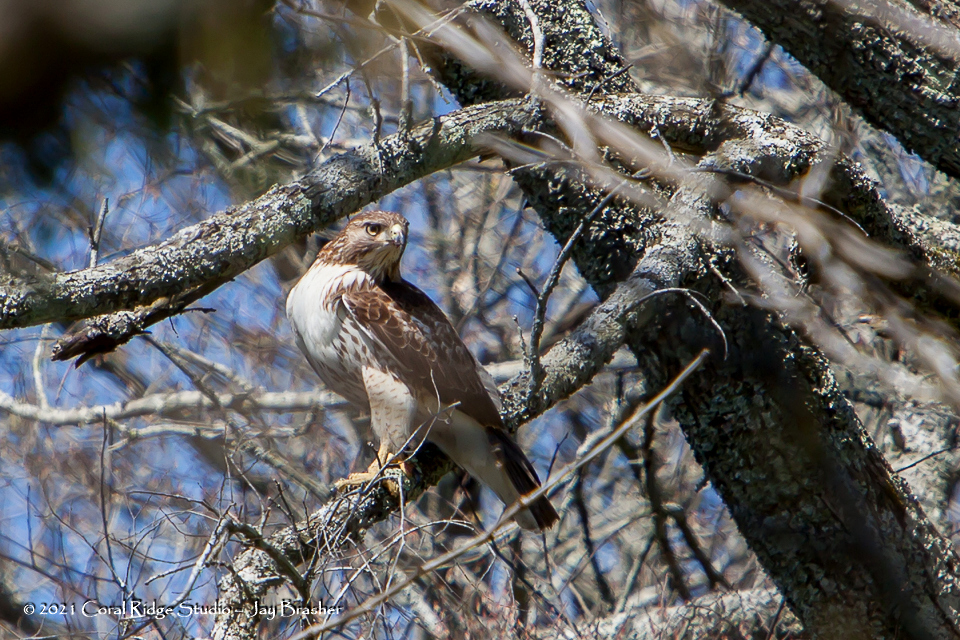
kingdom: Animalia
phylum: Chordata
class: Aves
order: Accipitriformes
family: Accipitridae
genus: Buteo
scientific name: Buteo jamaicensis
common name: Red-tailed hawk
